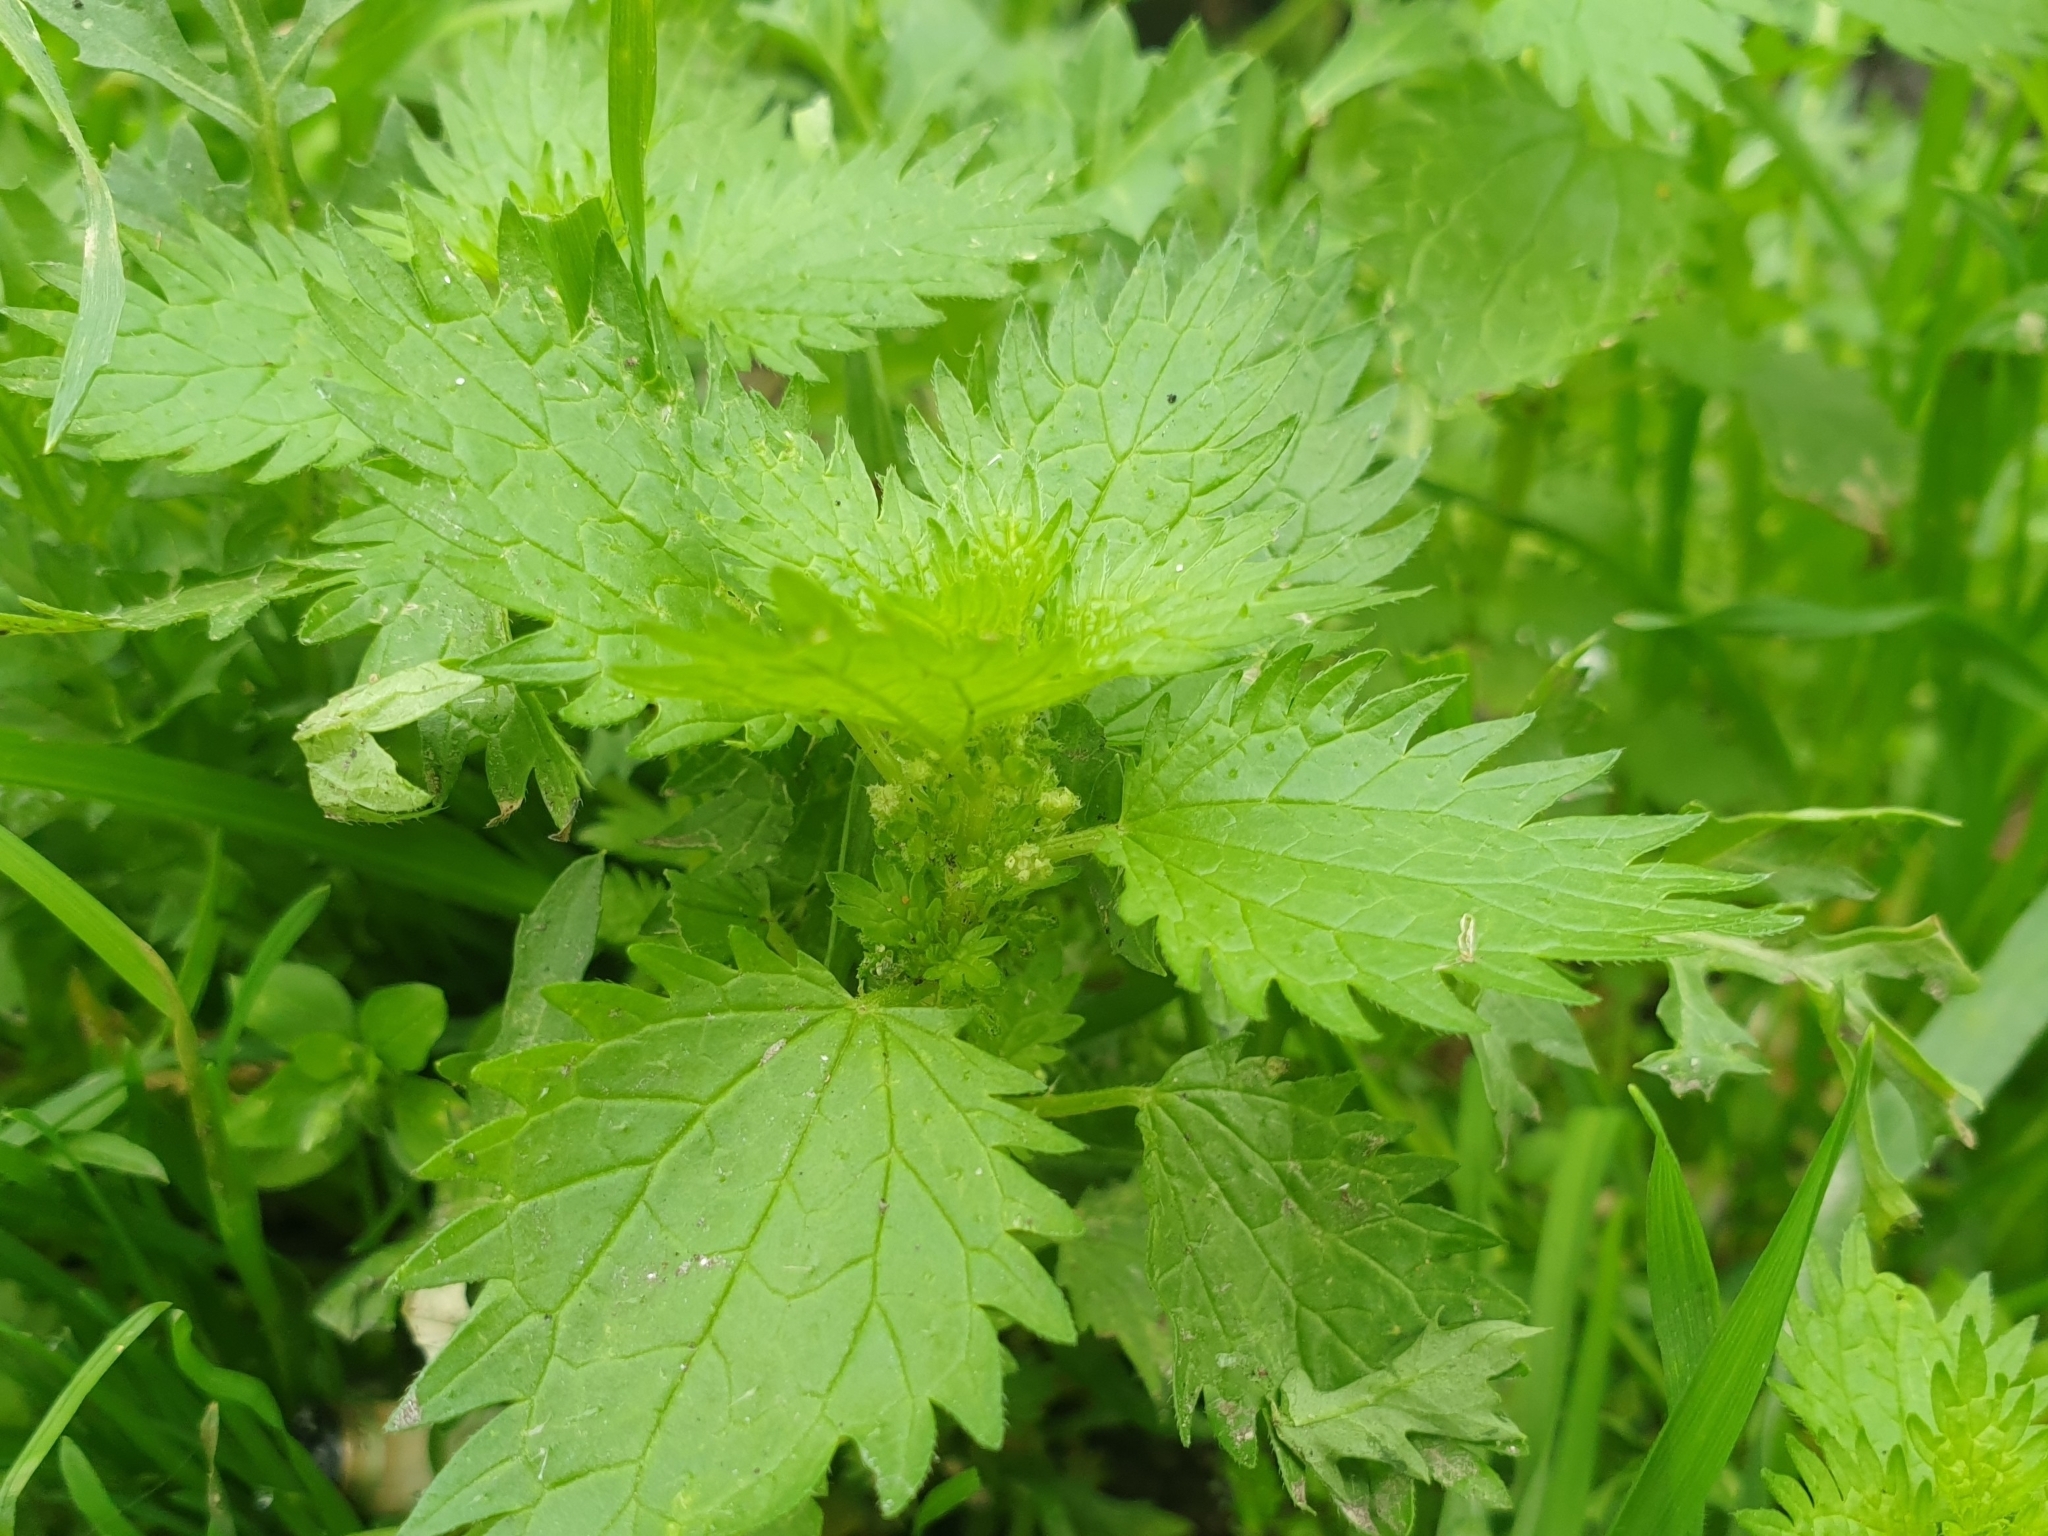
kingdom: Plantae
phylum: Tracheophyta
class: Magnoliopsida
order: Rosales
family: Urticaceae
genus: Urtica
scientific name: Urtica urens
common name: Dwarf nettle
